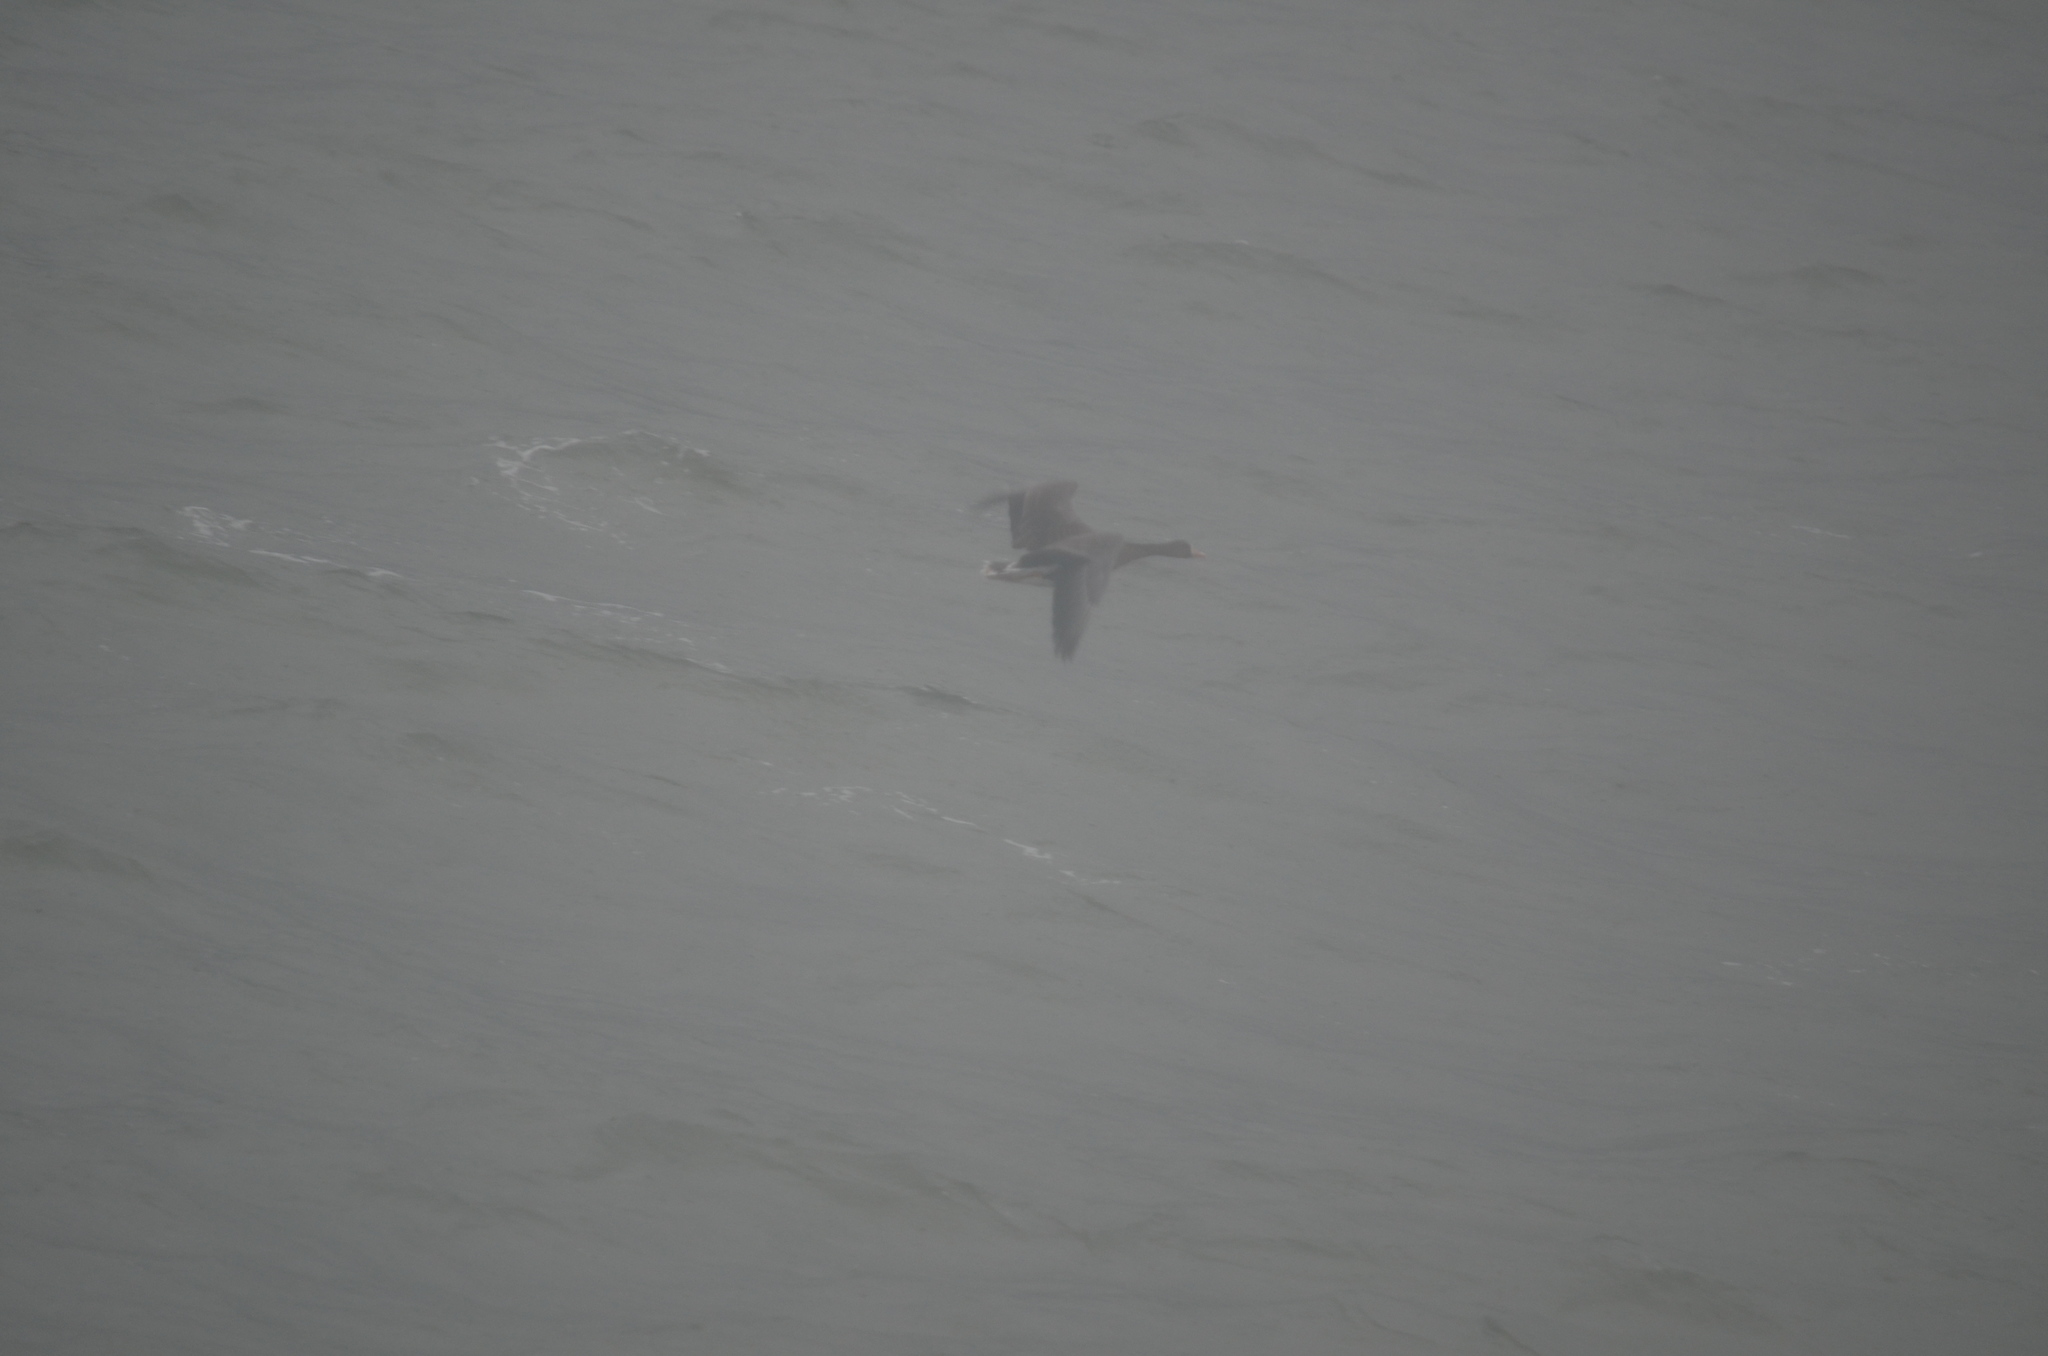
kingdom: Animalia
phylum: Chordata
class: Aves
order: Anseriformes
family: Anatidae
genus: Anser
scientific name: Anser albifrons
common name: Greater white-fronted goose
